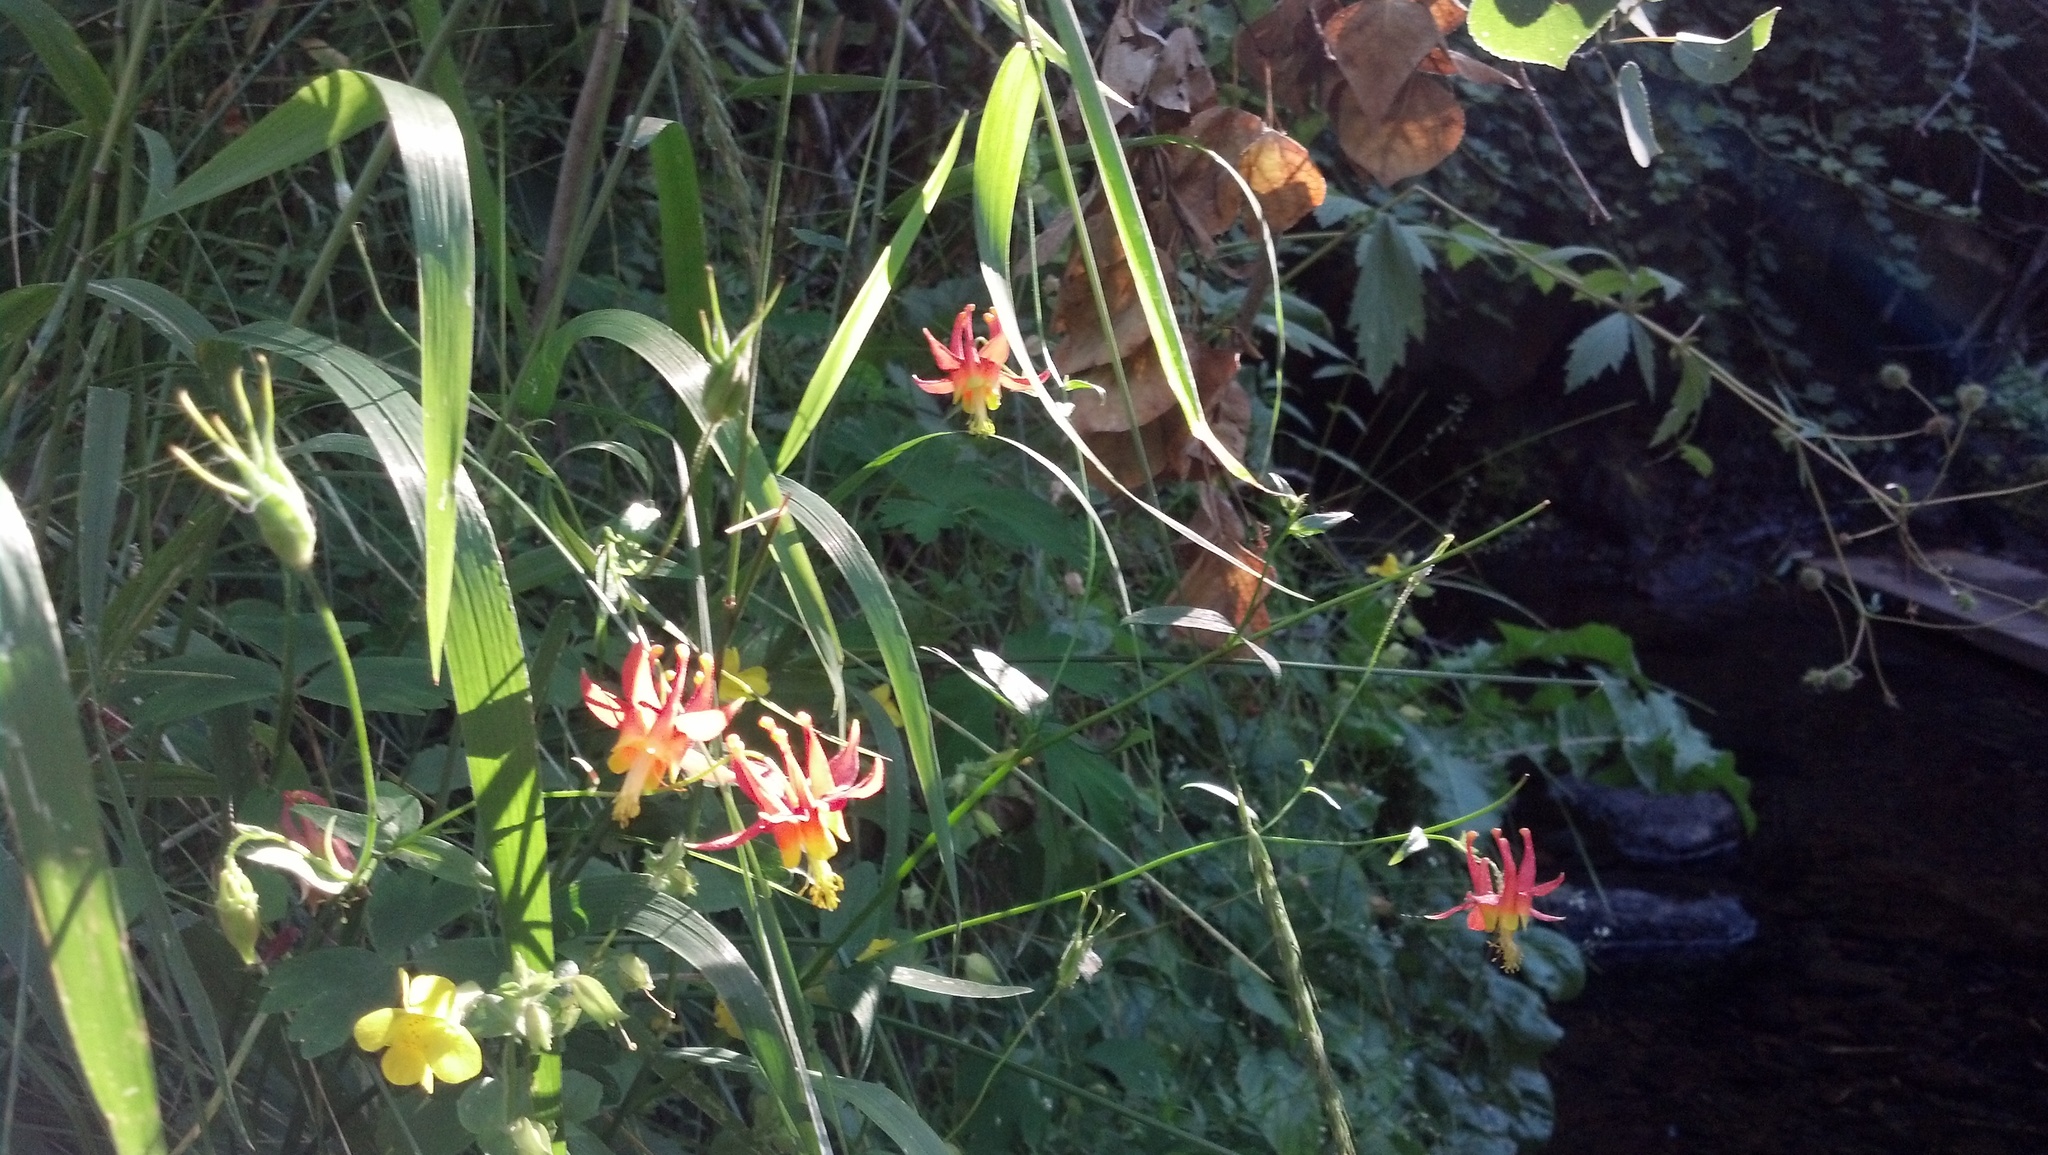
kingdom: Plantae
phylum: Tracheophyta
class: Magnoliopsida
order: Ranunculales
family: Ranunculaceae
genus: Aquilegia
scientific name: Aquilegia formosa
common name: Sitka columbine
